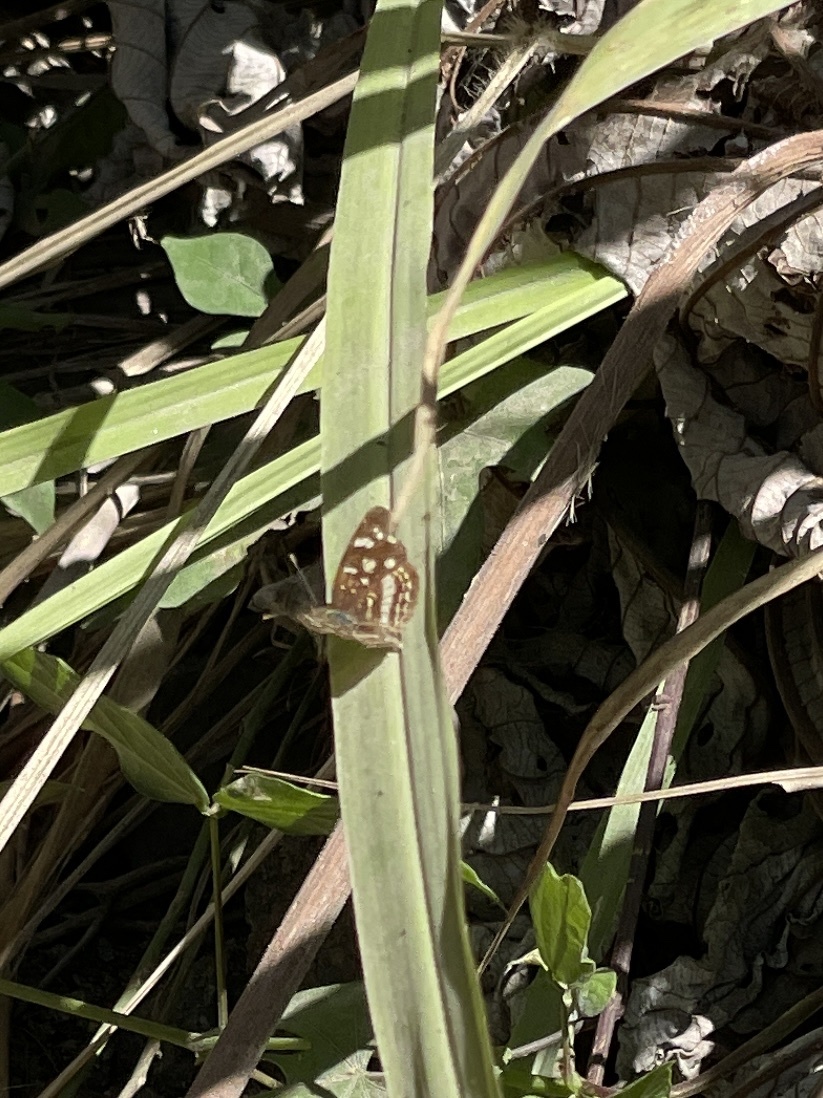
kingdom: Animalia
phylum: Arthropoda
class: Insecta
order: Lepidoptera
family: Nymphalidae
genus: Anthanassa
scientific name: Anthanassa tulcis
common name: Pale-banded crescent
